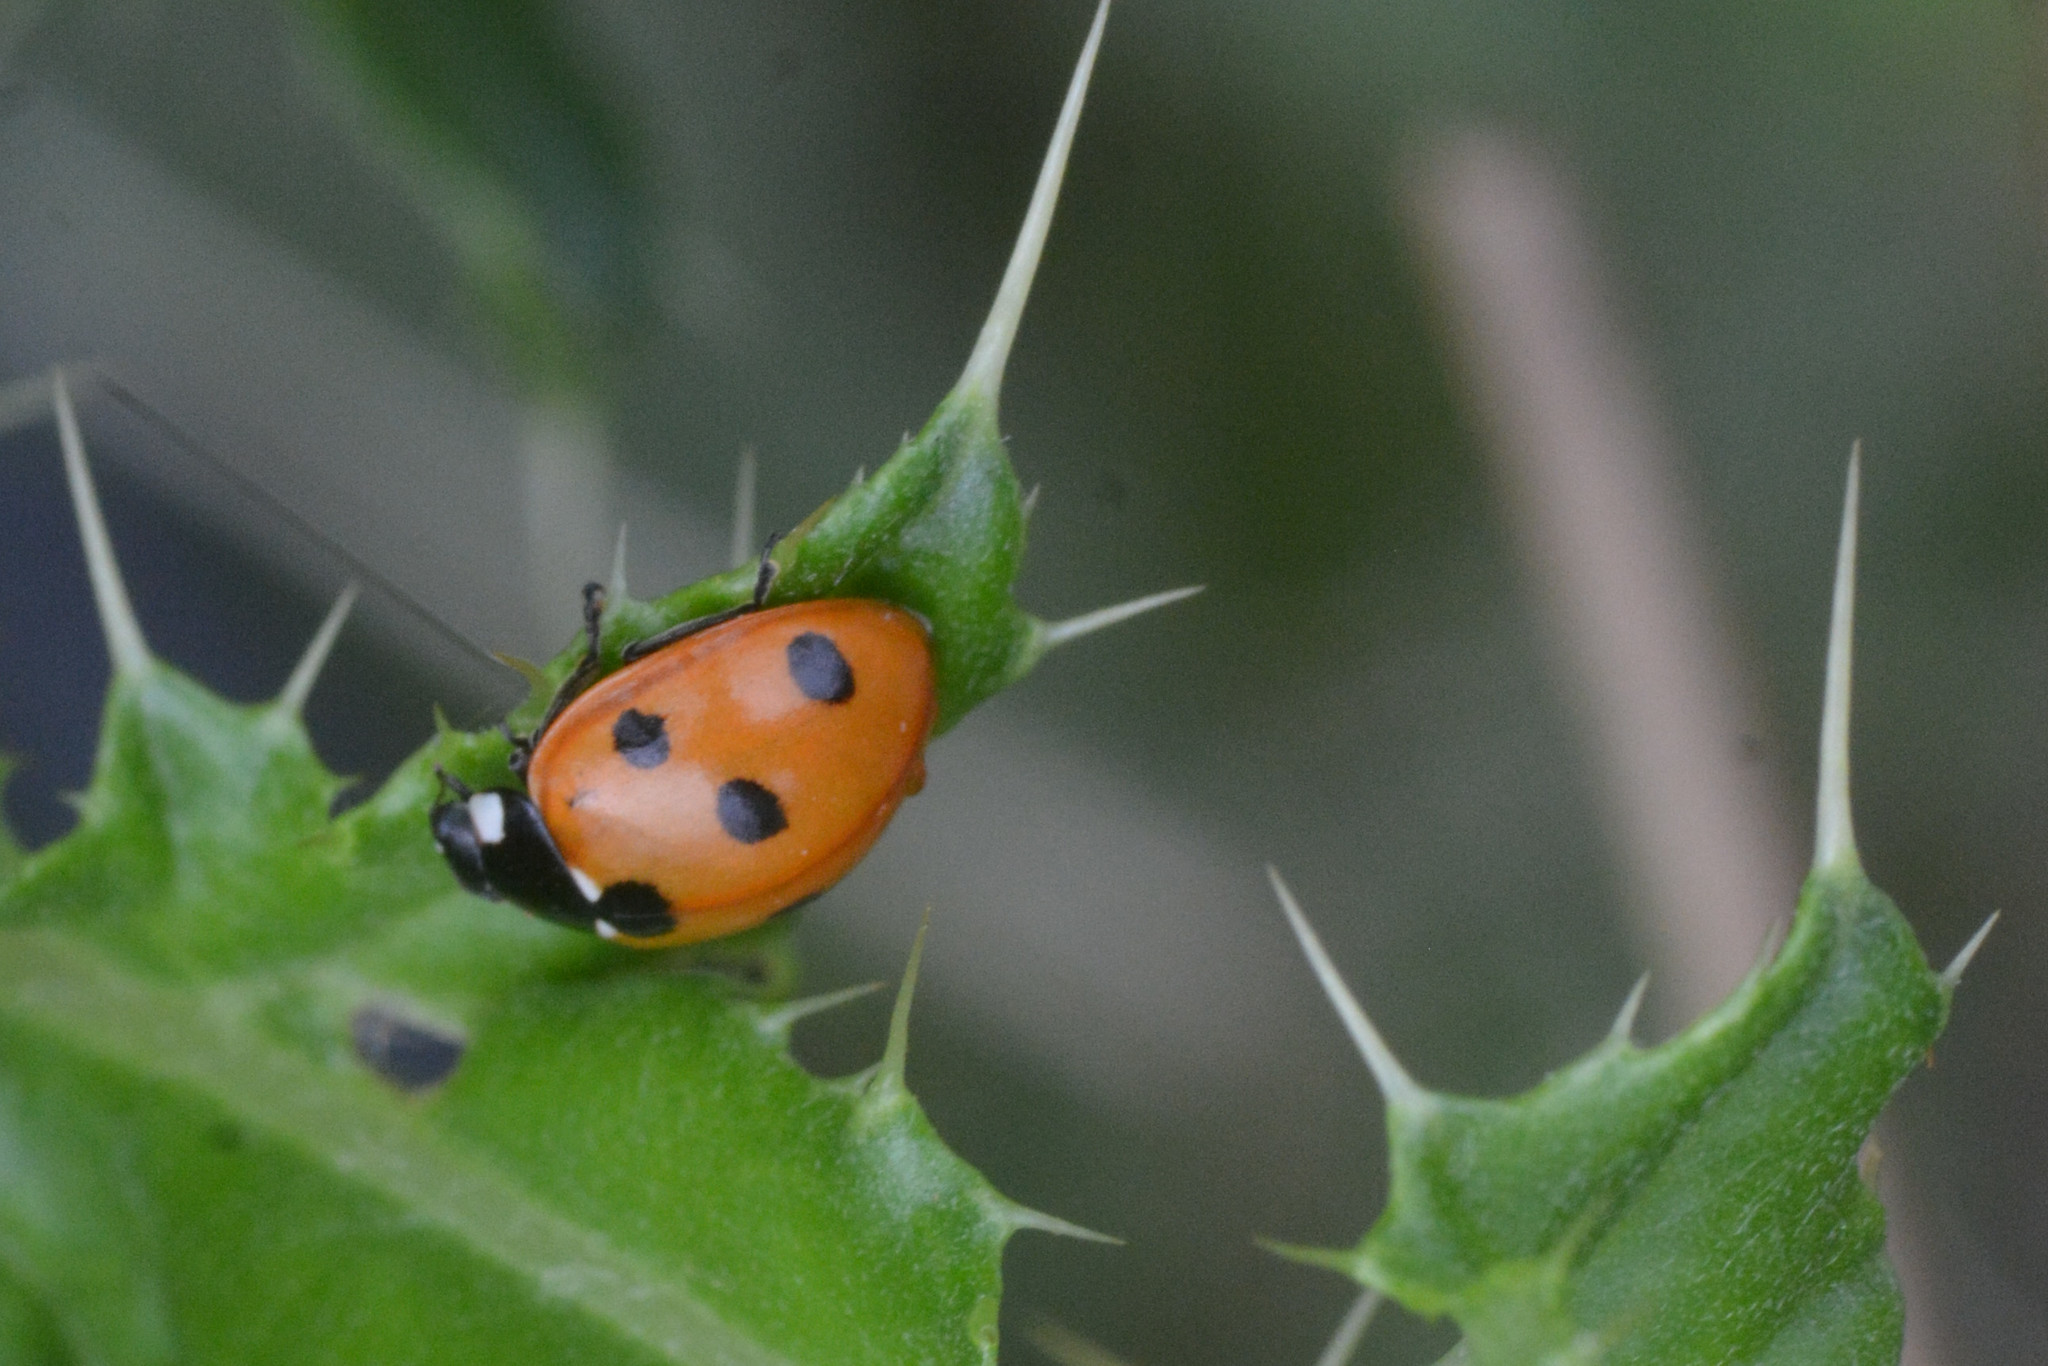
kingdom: Animalia
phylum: Arthropoda
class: Insecta
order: Coleoptera
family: Coccinellidae
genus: Coccinella
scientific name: Coccinella septempunctata
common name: Sevenspotted lady beetle
